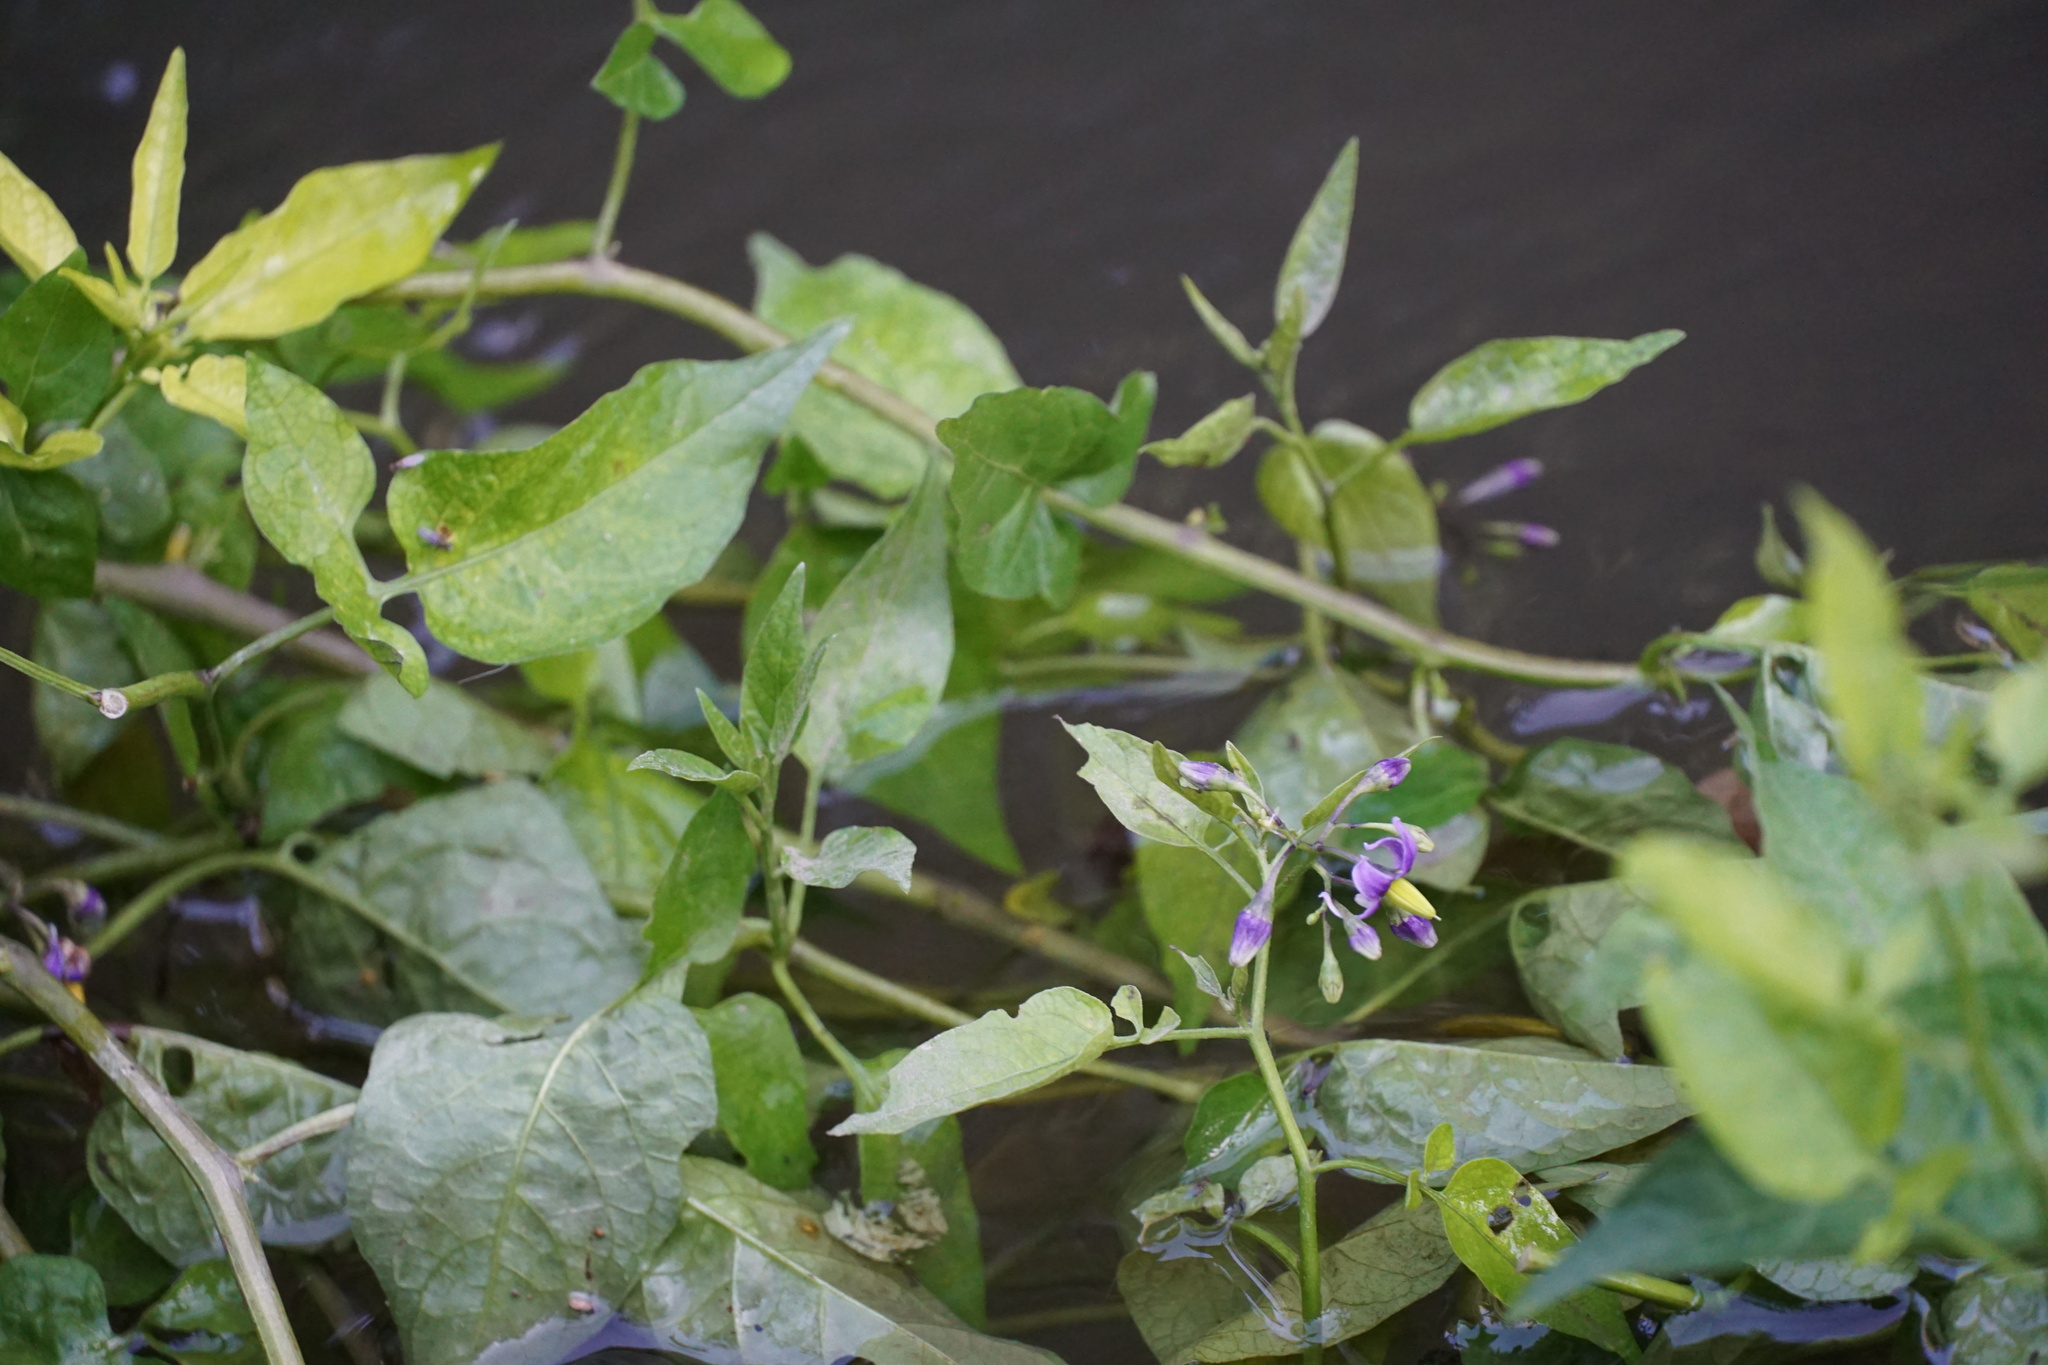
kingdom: Plantae
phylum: Tracheophyta
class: Magnoliopsida
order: Solanales
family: Solanaceae
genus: Solanum
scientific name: Solanum dulcamara
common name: Climbing nightshade
